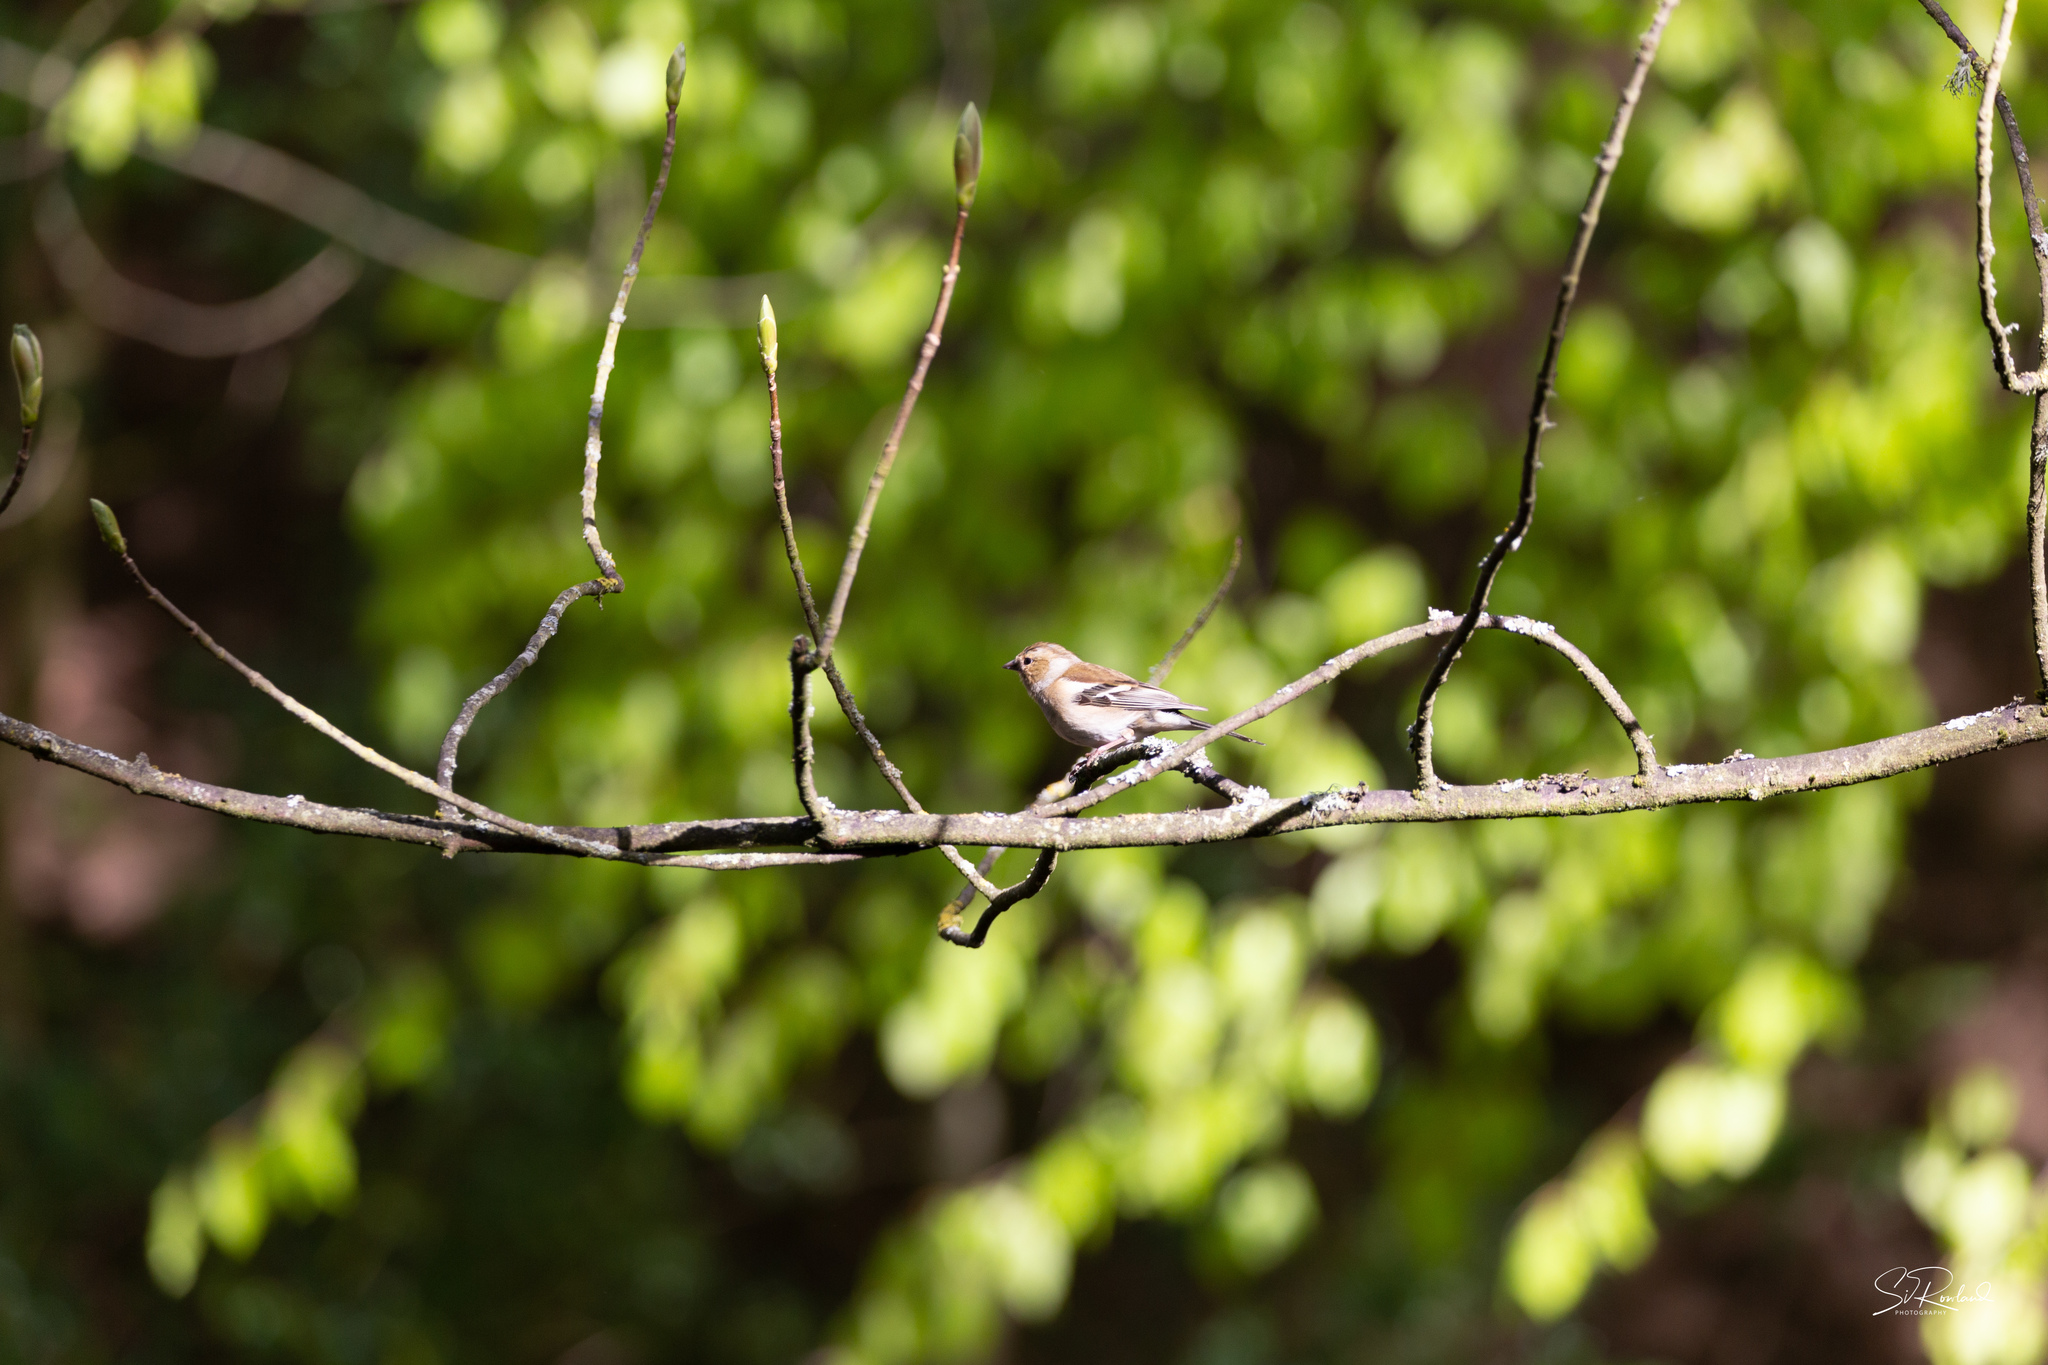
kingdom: Animalia
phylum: Chordata
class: Aves
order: Passeriformes
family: Fringillidae
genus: Fringilla
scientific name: Fringilla coelebs
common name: Common chaffinch
